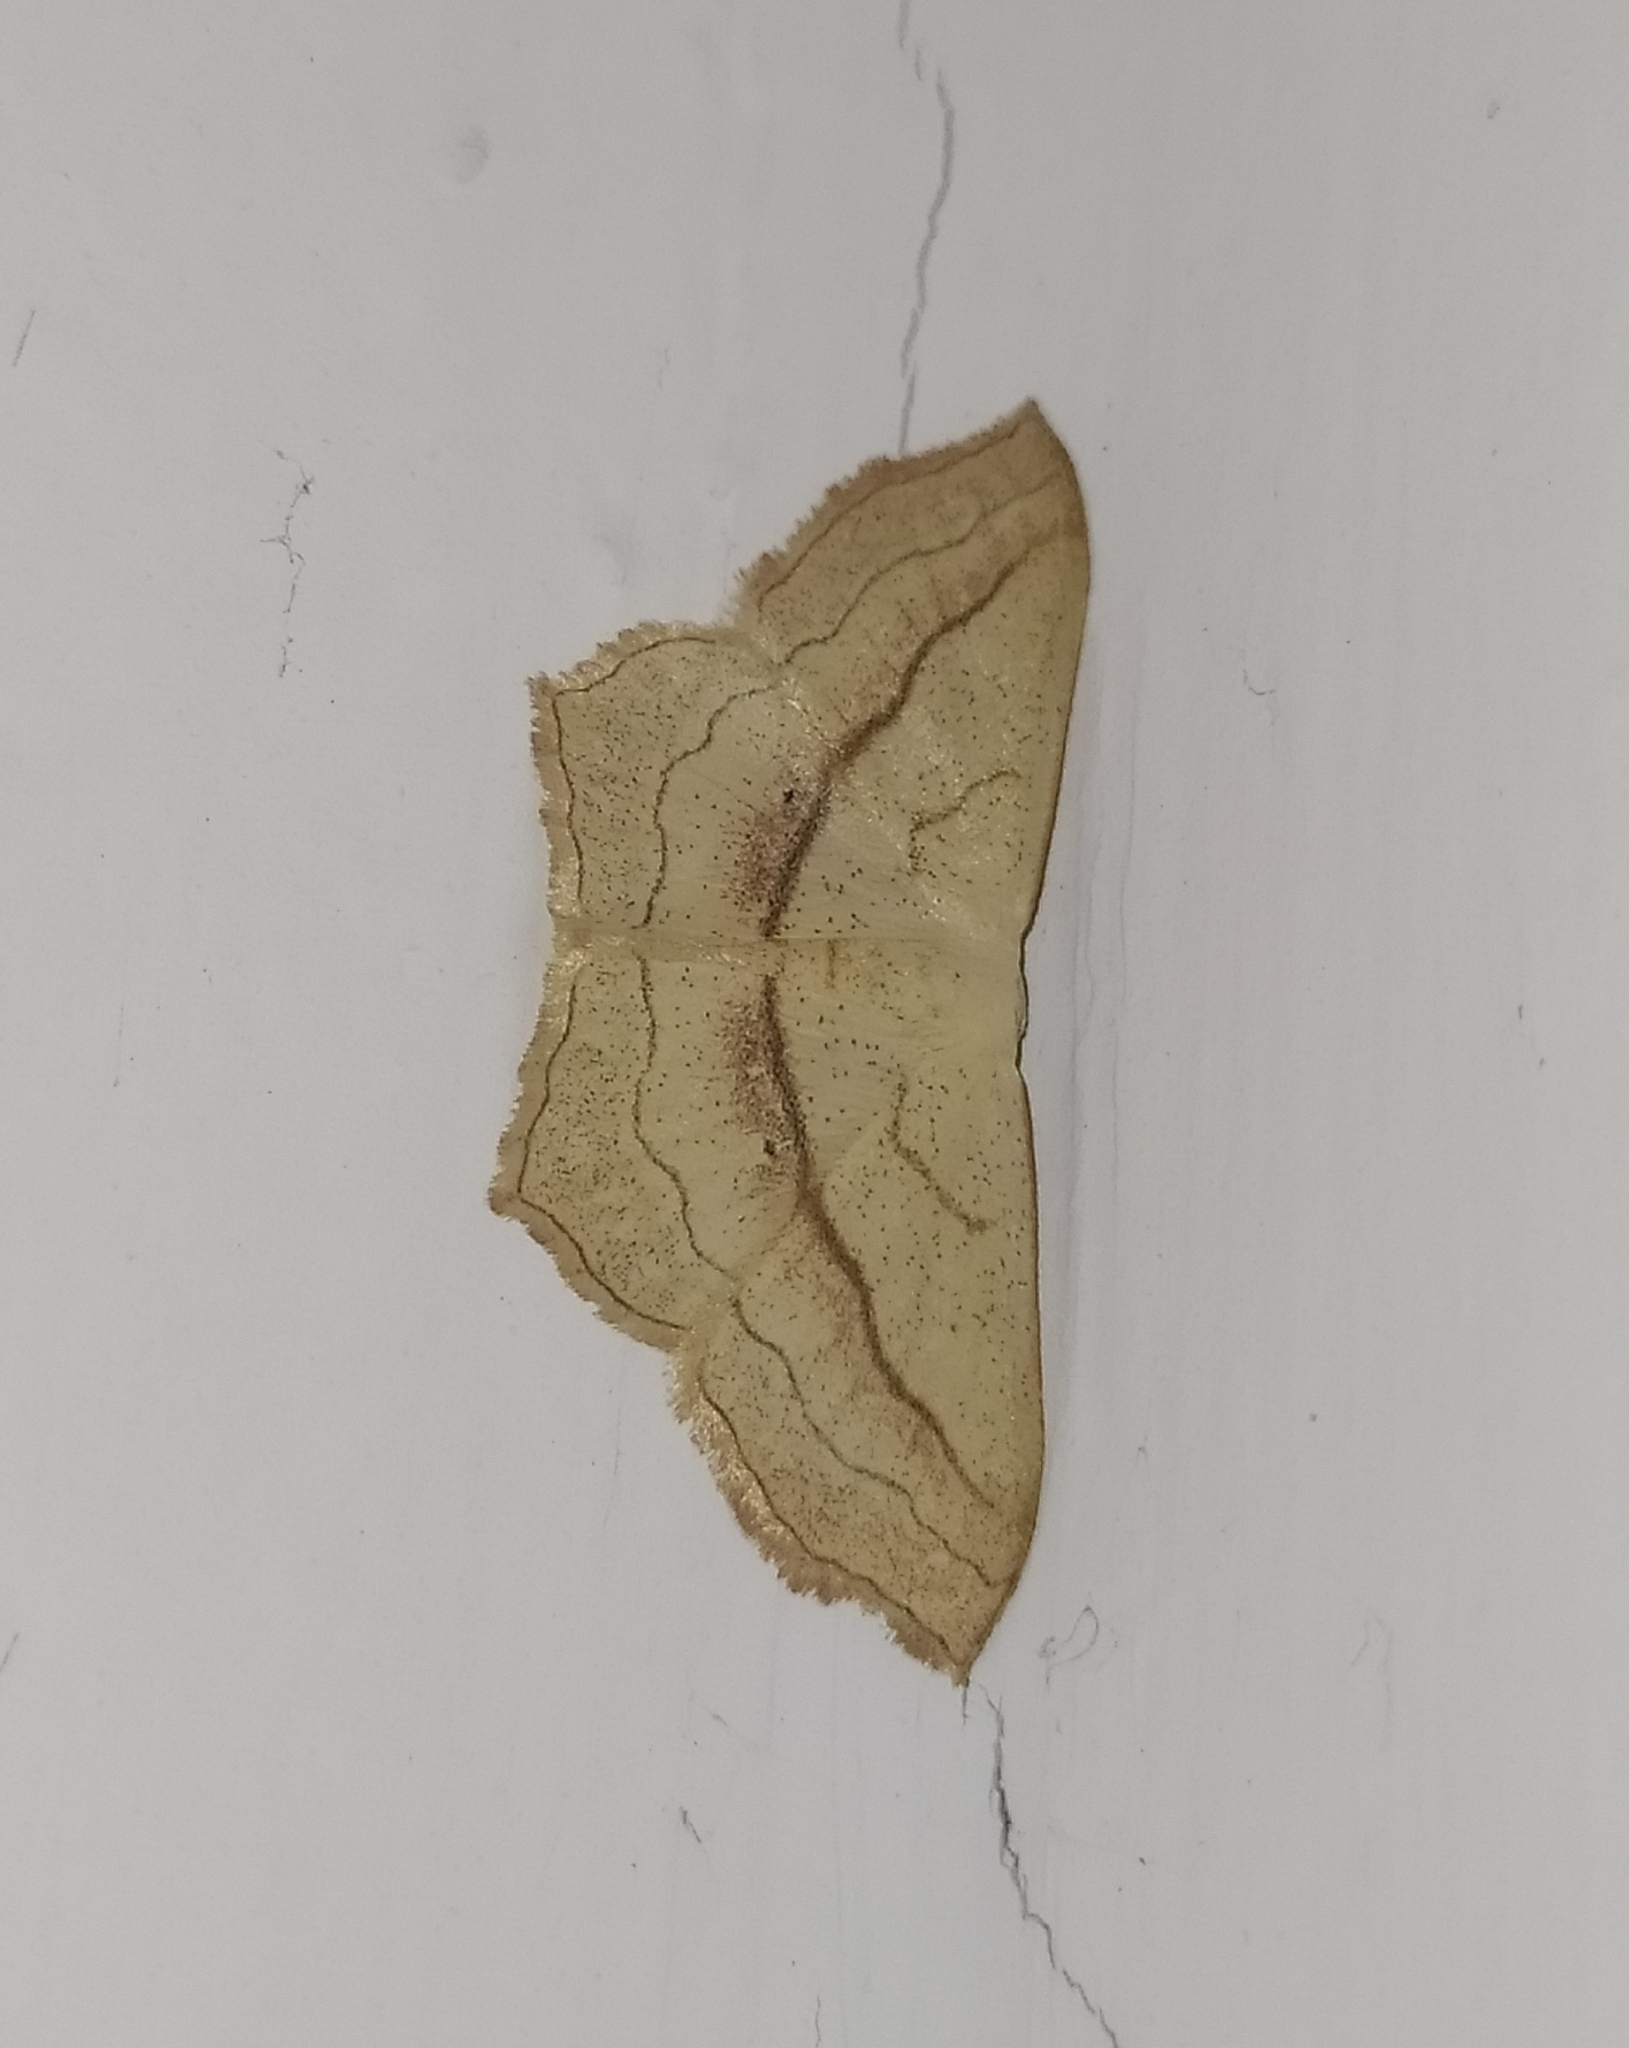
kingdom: Animalia
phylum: Arthropoda
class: Insecta
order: Lepidoptera
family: Geometridae
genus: Scopula
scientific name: Scopula imitaria
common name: Small blood-vein
